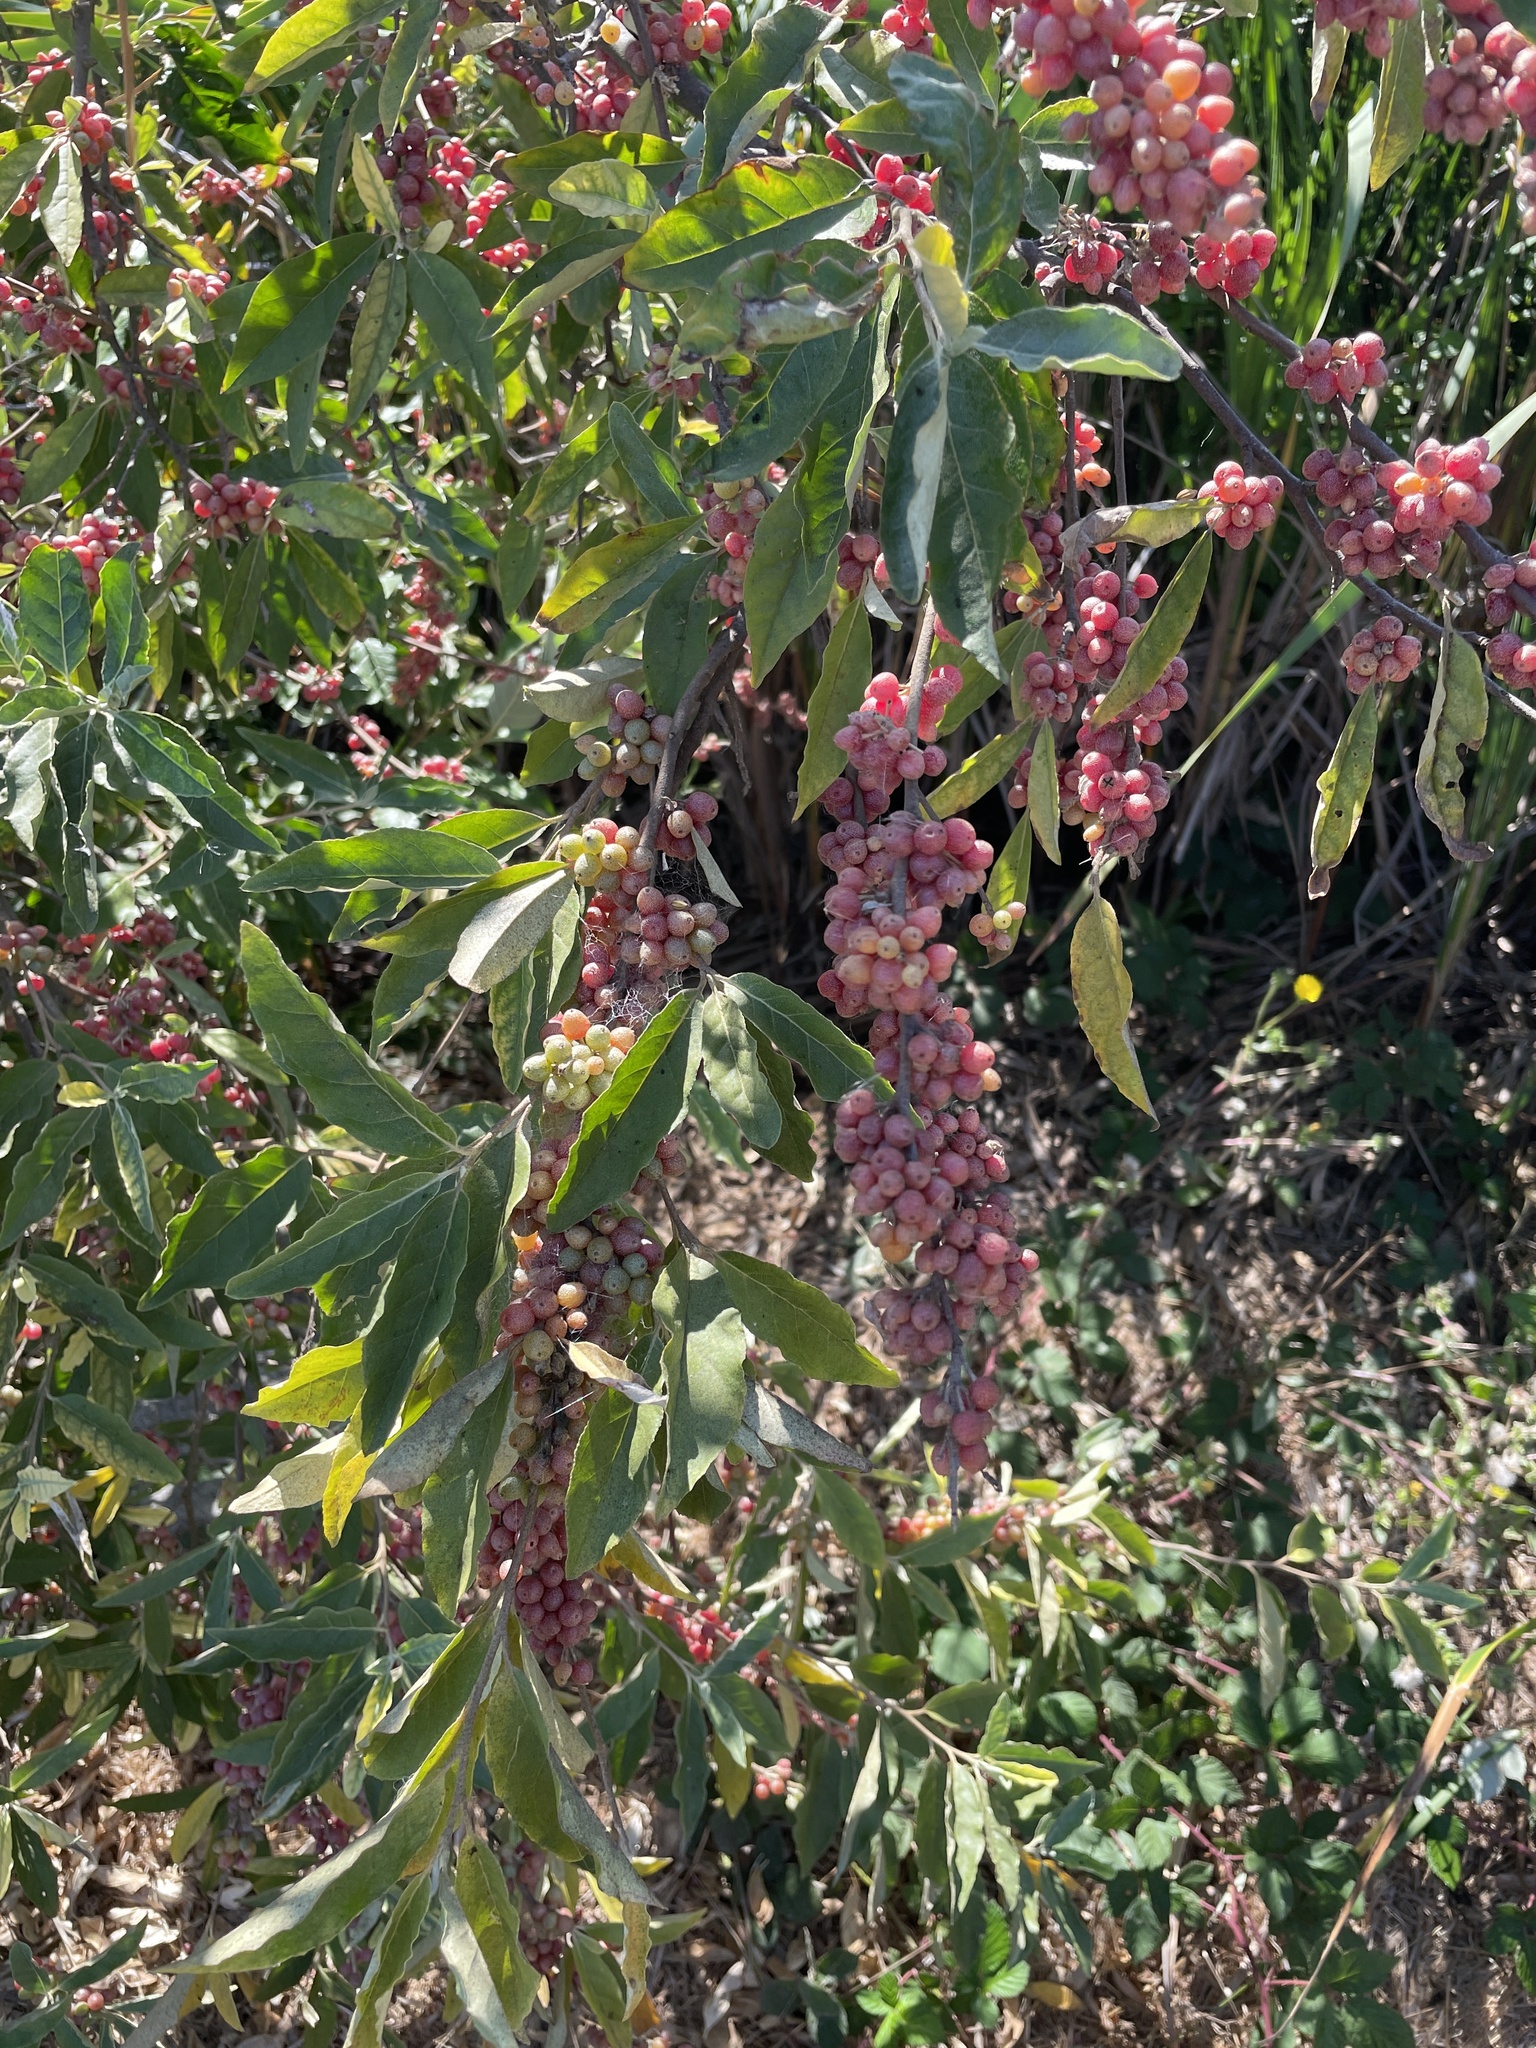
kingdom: Plantae
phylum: Tracheophyta
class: Magnoliopsida
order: Rosales
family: Elaeagnaceae
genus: Elaeagnus
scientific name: Elaeagnus umbellata
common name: Autumn olive
